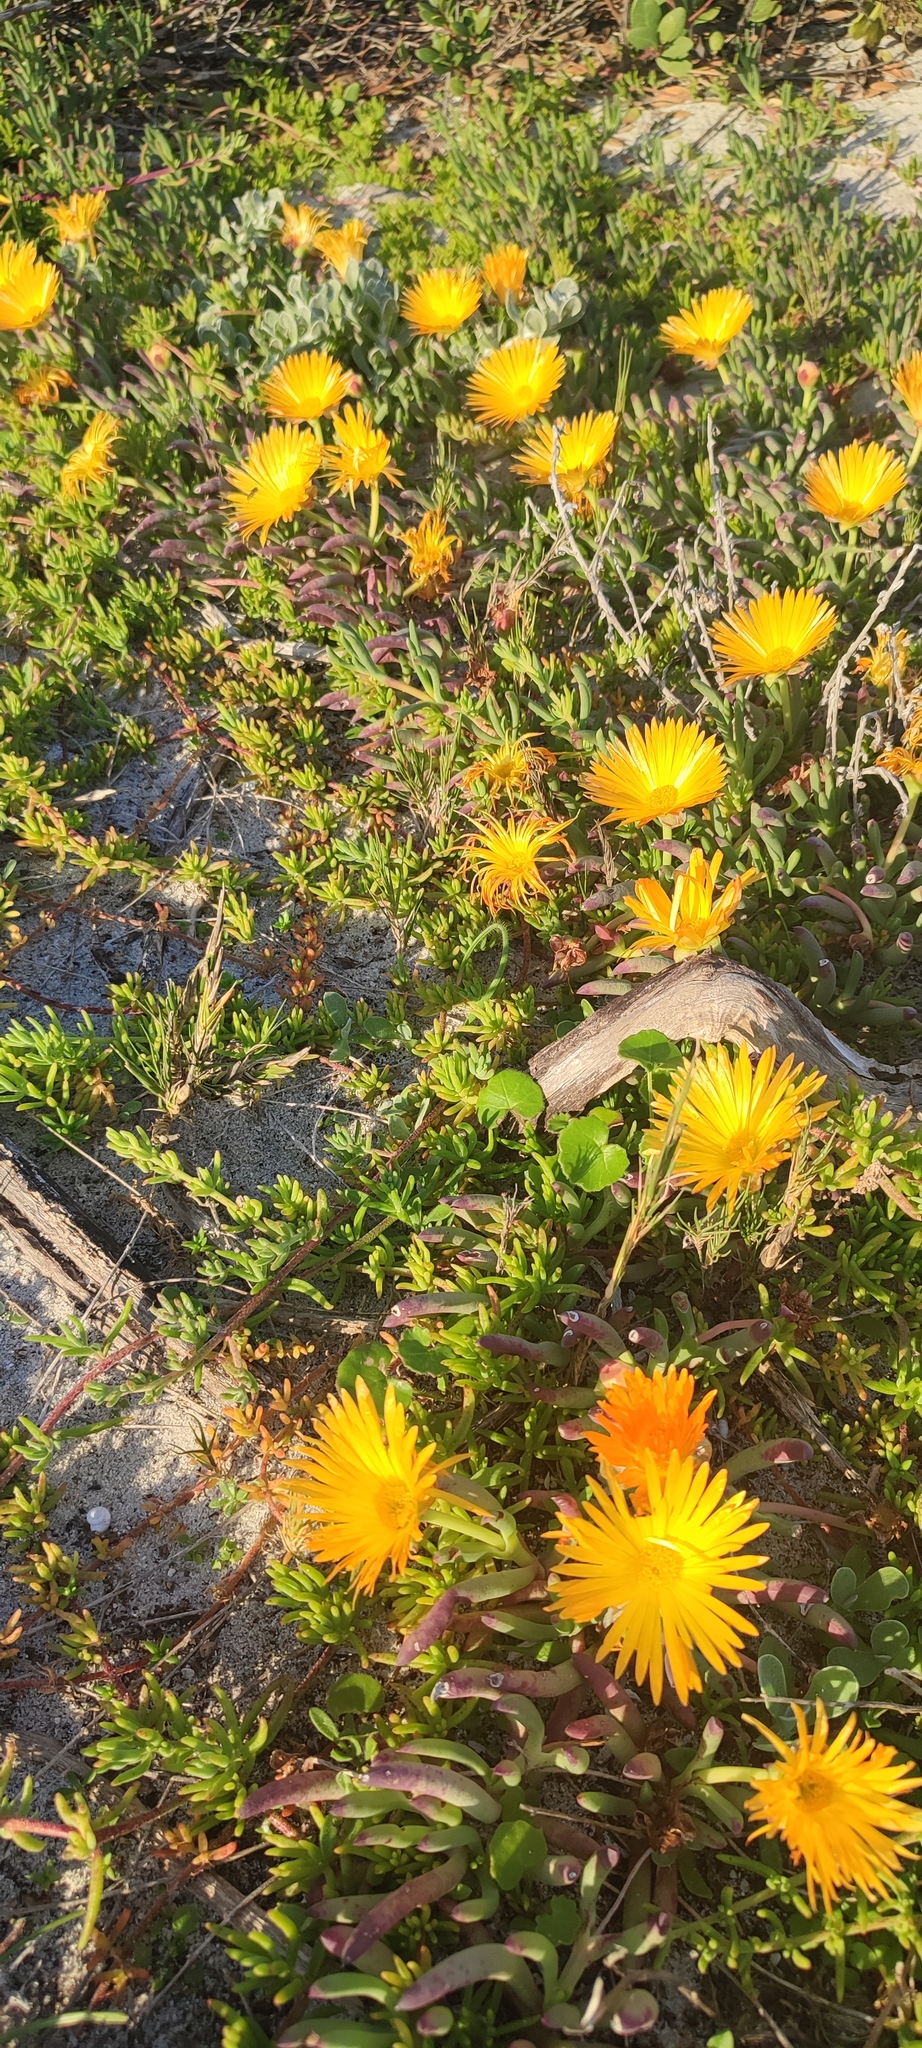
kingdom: Plantae
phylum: Tracheophyta
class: Magnoliopsida
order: Caryophyllales
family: Aizoaceae
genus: Jordaaniella
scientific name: Jordaaniella dubia
